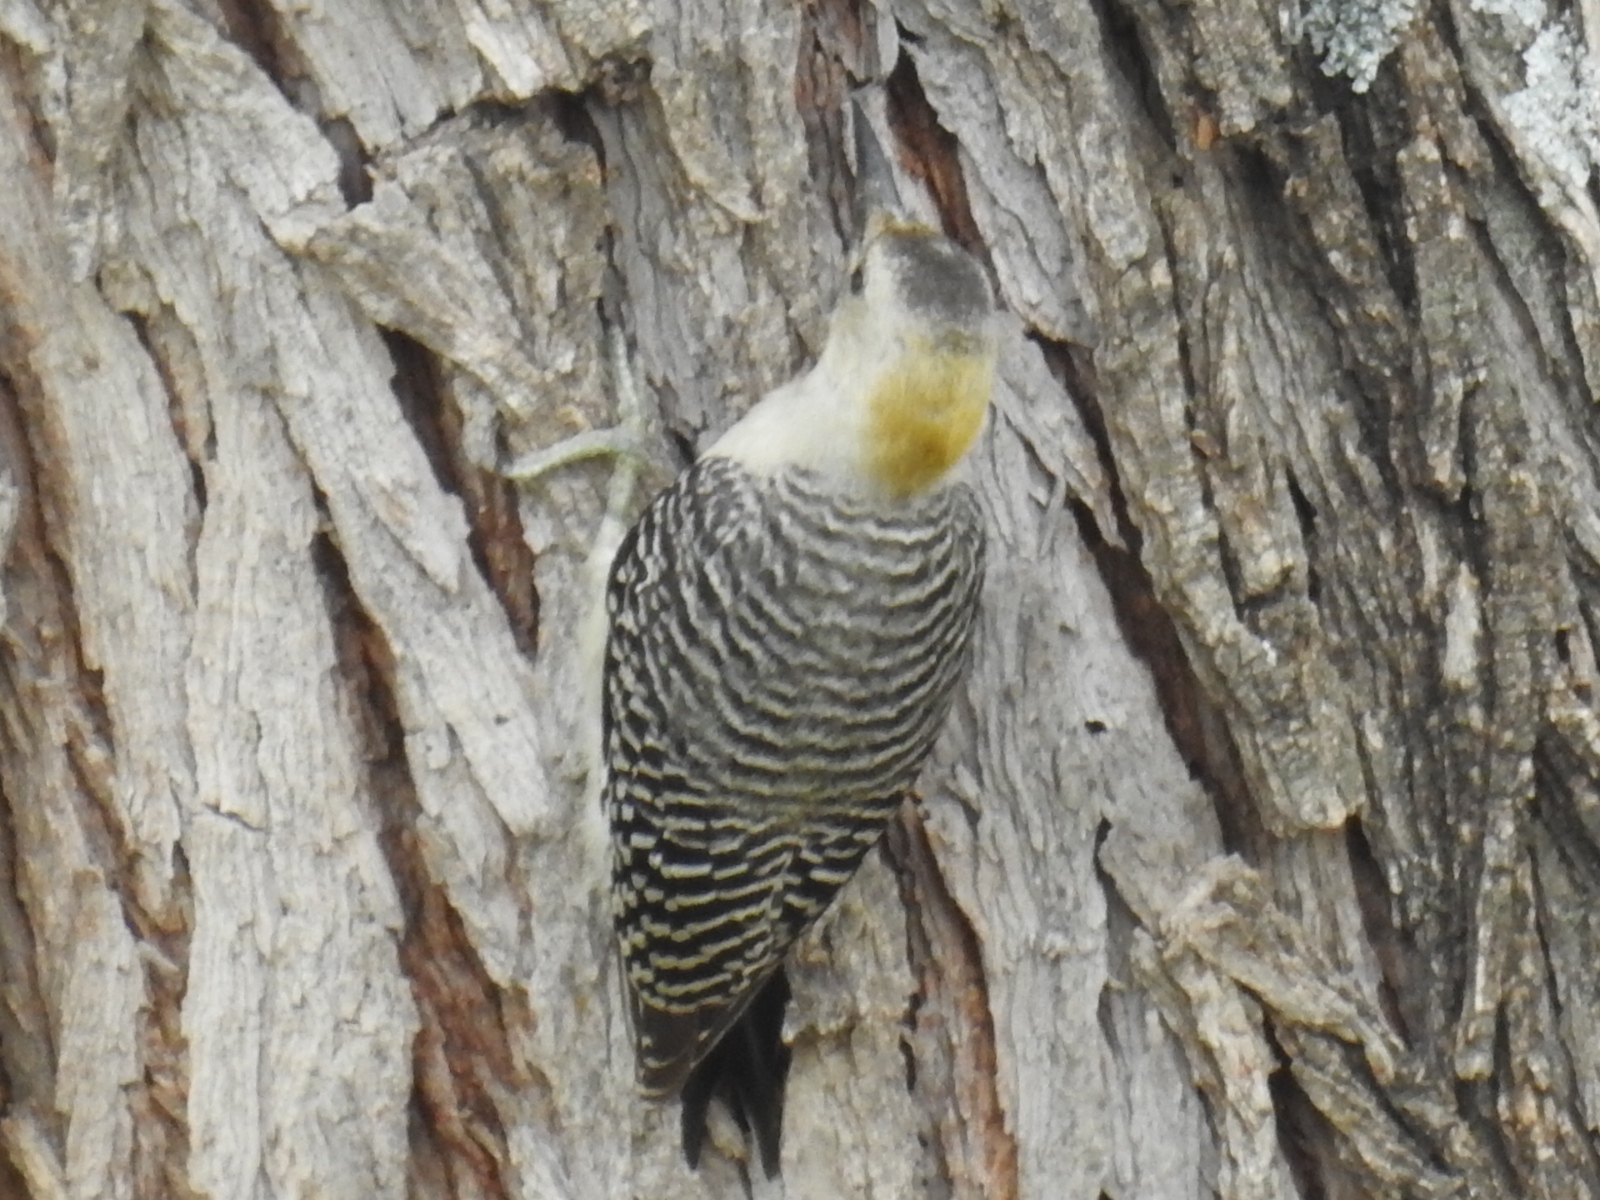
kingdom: Animalia
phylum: Chordata
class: Aves
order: Piciformes
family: Picidae
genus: Melanerpes
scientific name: Melanerpes aurifrons
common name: Golden-fronted woodpecker
